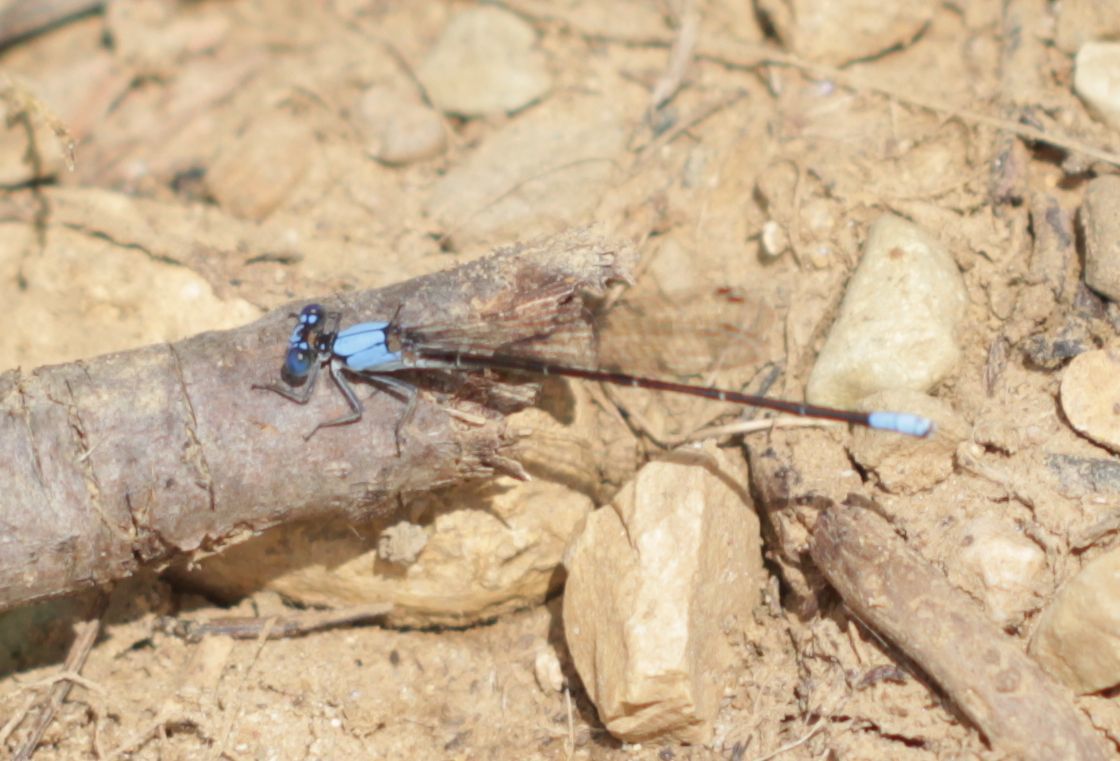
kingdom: Animalia
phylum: Arthropoda
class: Insecta
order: Odonata
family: Coenagrionidae
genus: Argia
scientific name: Argia apicalis
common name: Blue-fronted dancer
